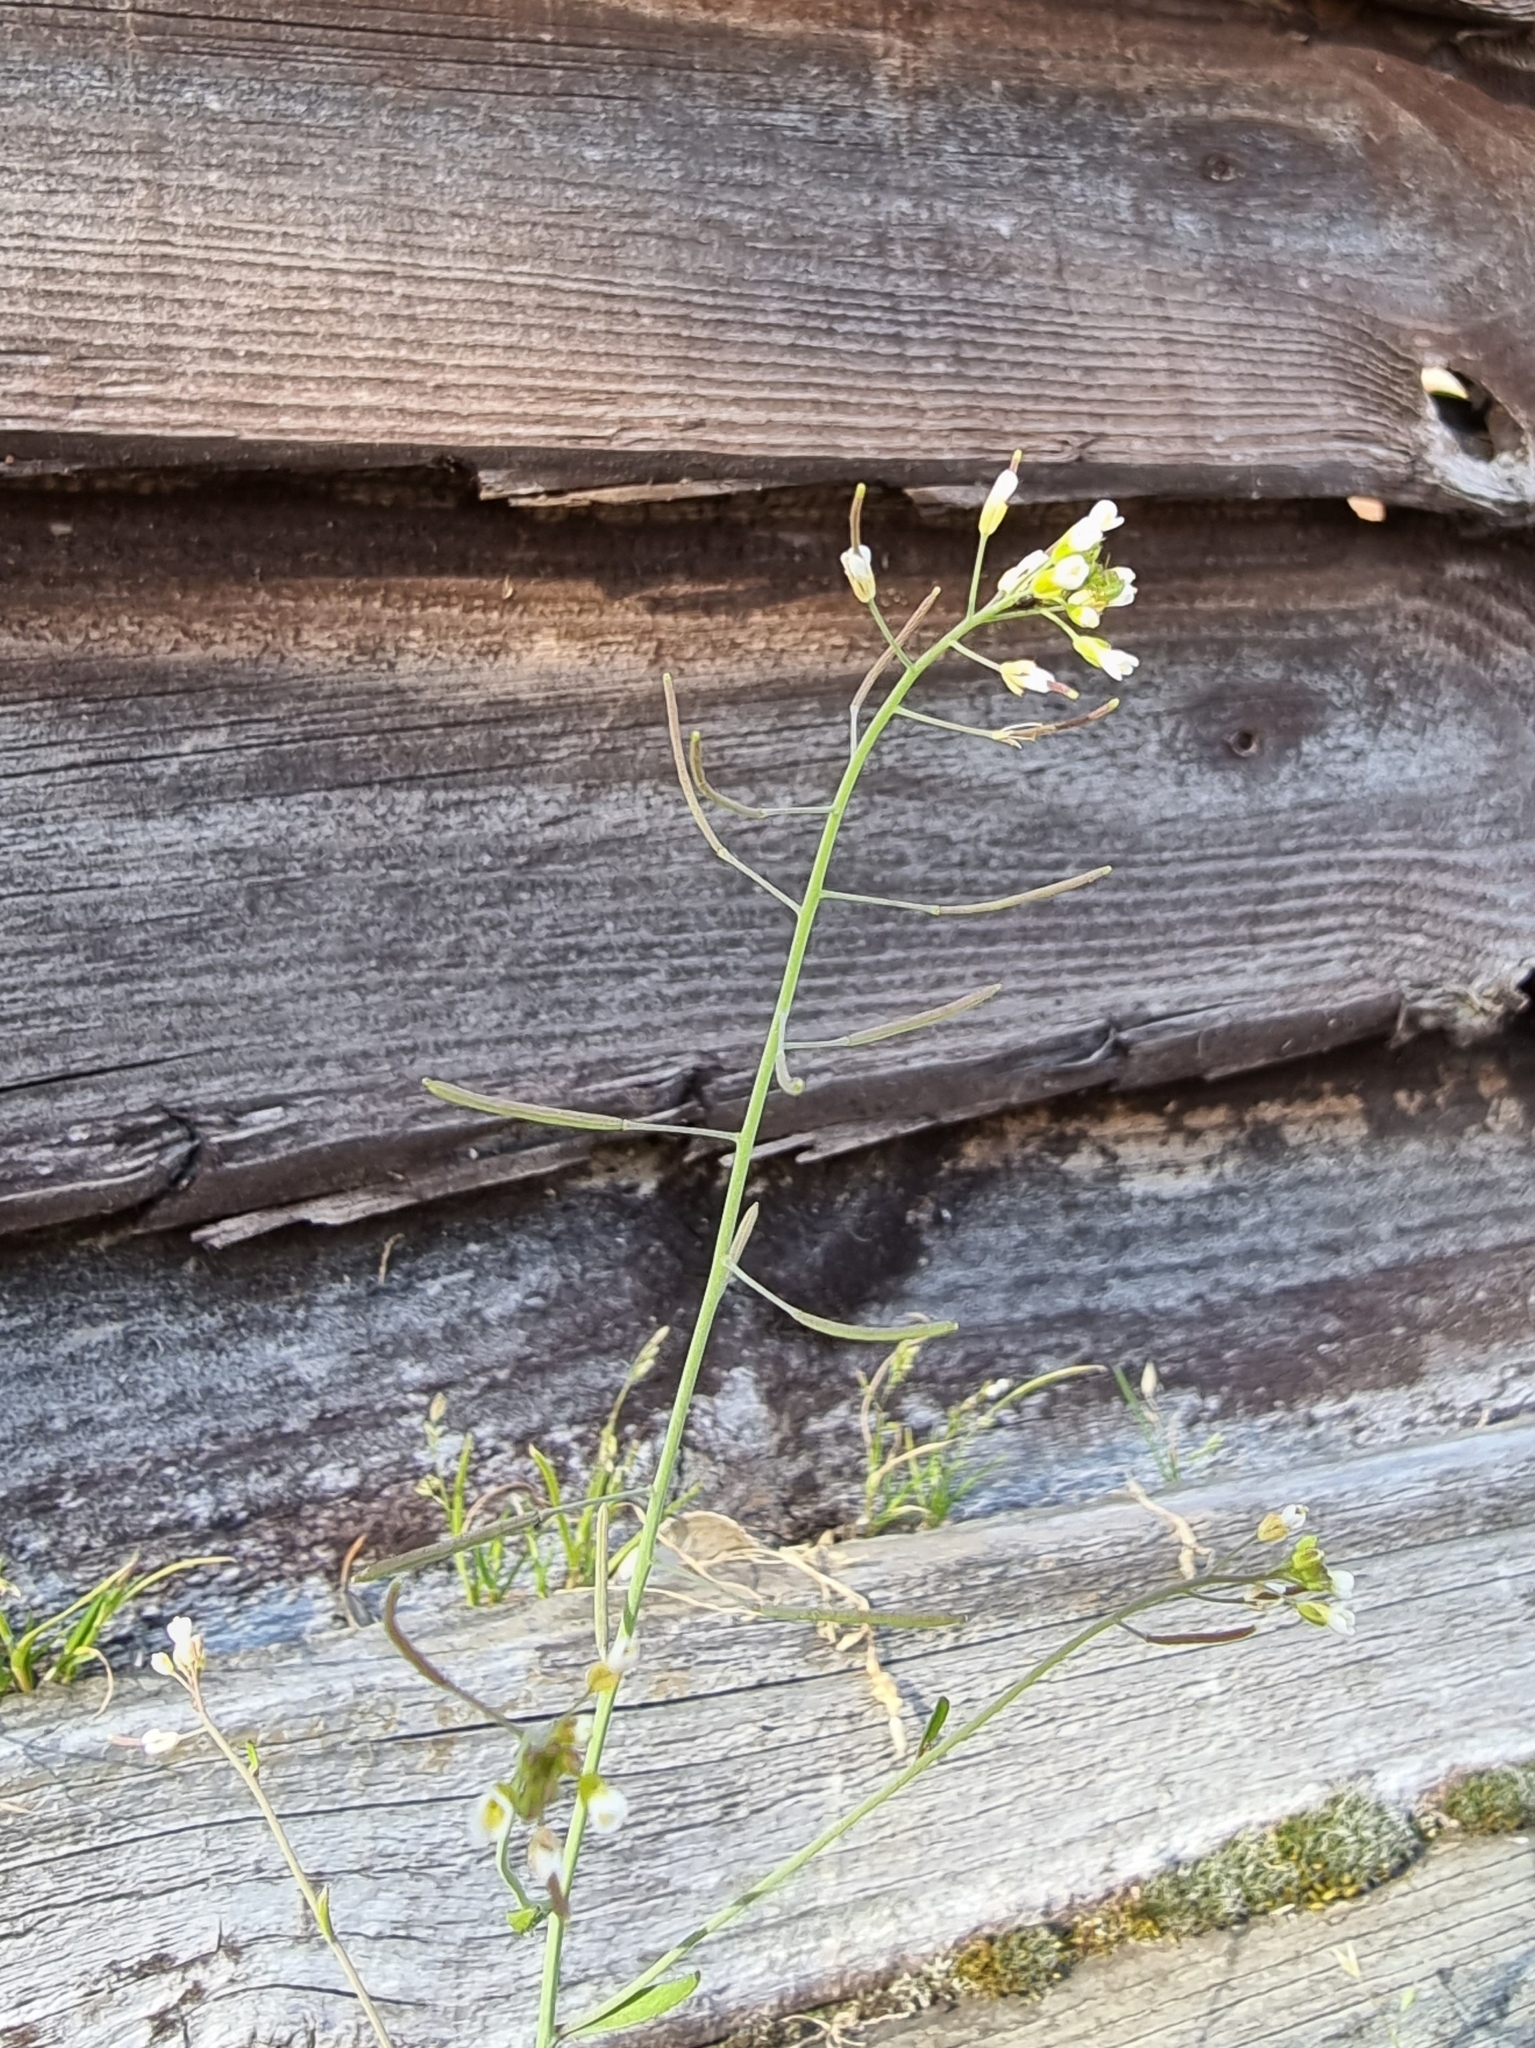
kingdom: Plantae
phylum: Tracheophyta
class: Magnoliopsida
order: Brassicales
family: Brassicaceae
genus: Arabidopsis
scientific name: Arabidopsis thaliana
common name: Thale cress
